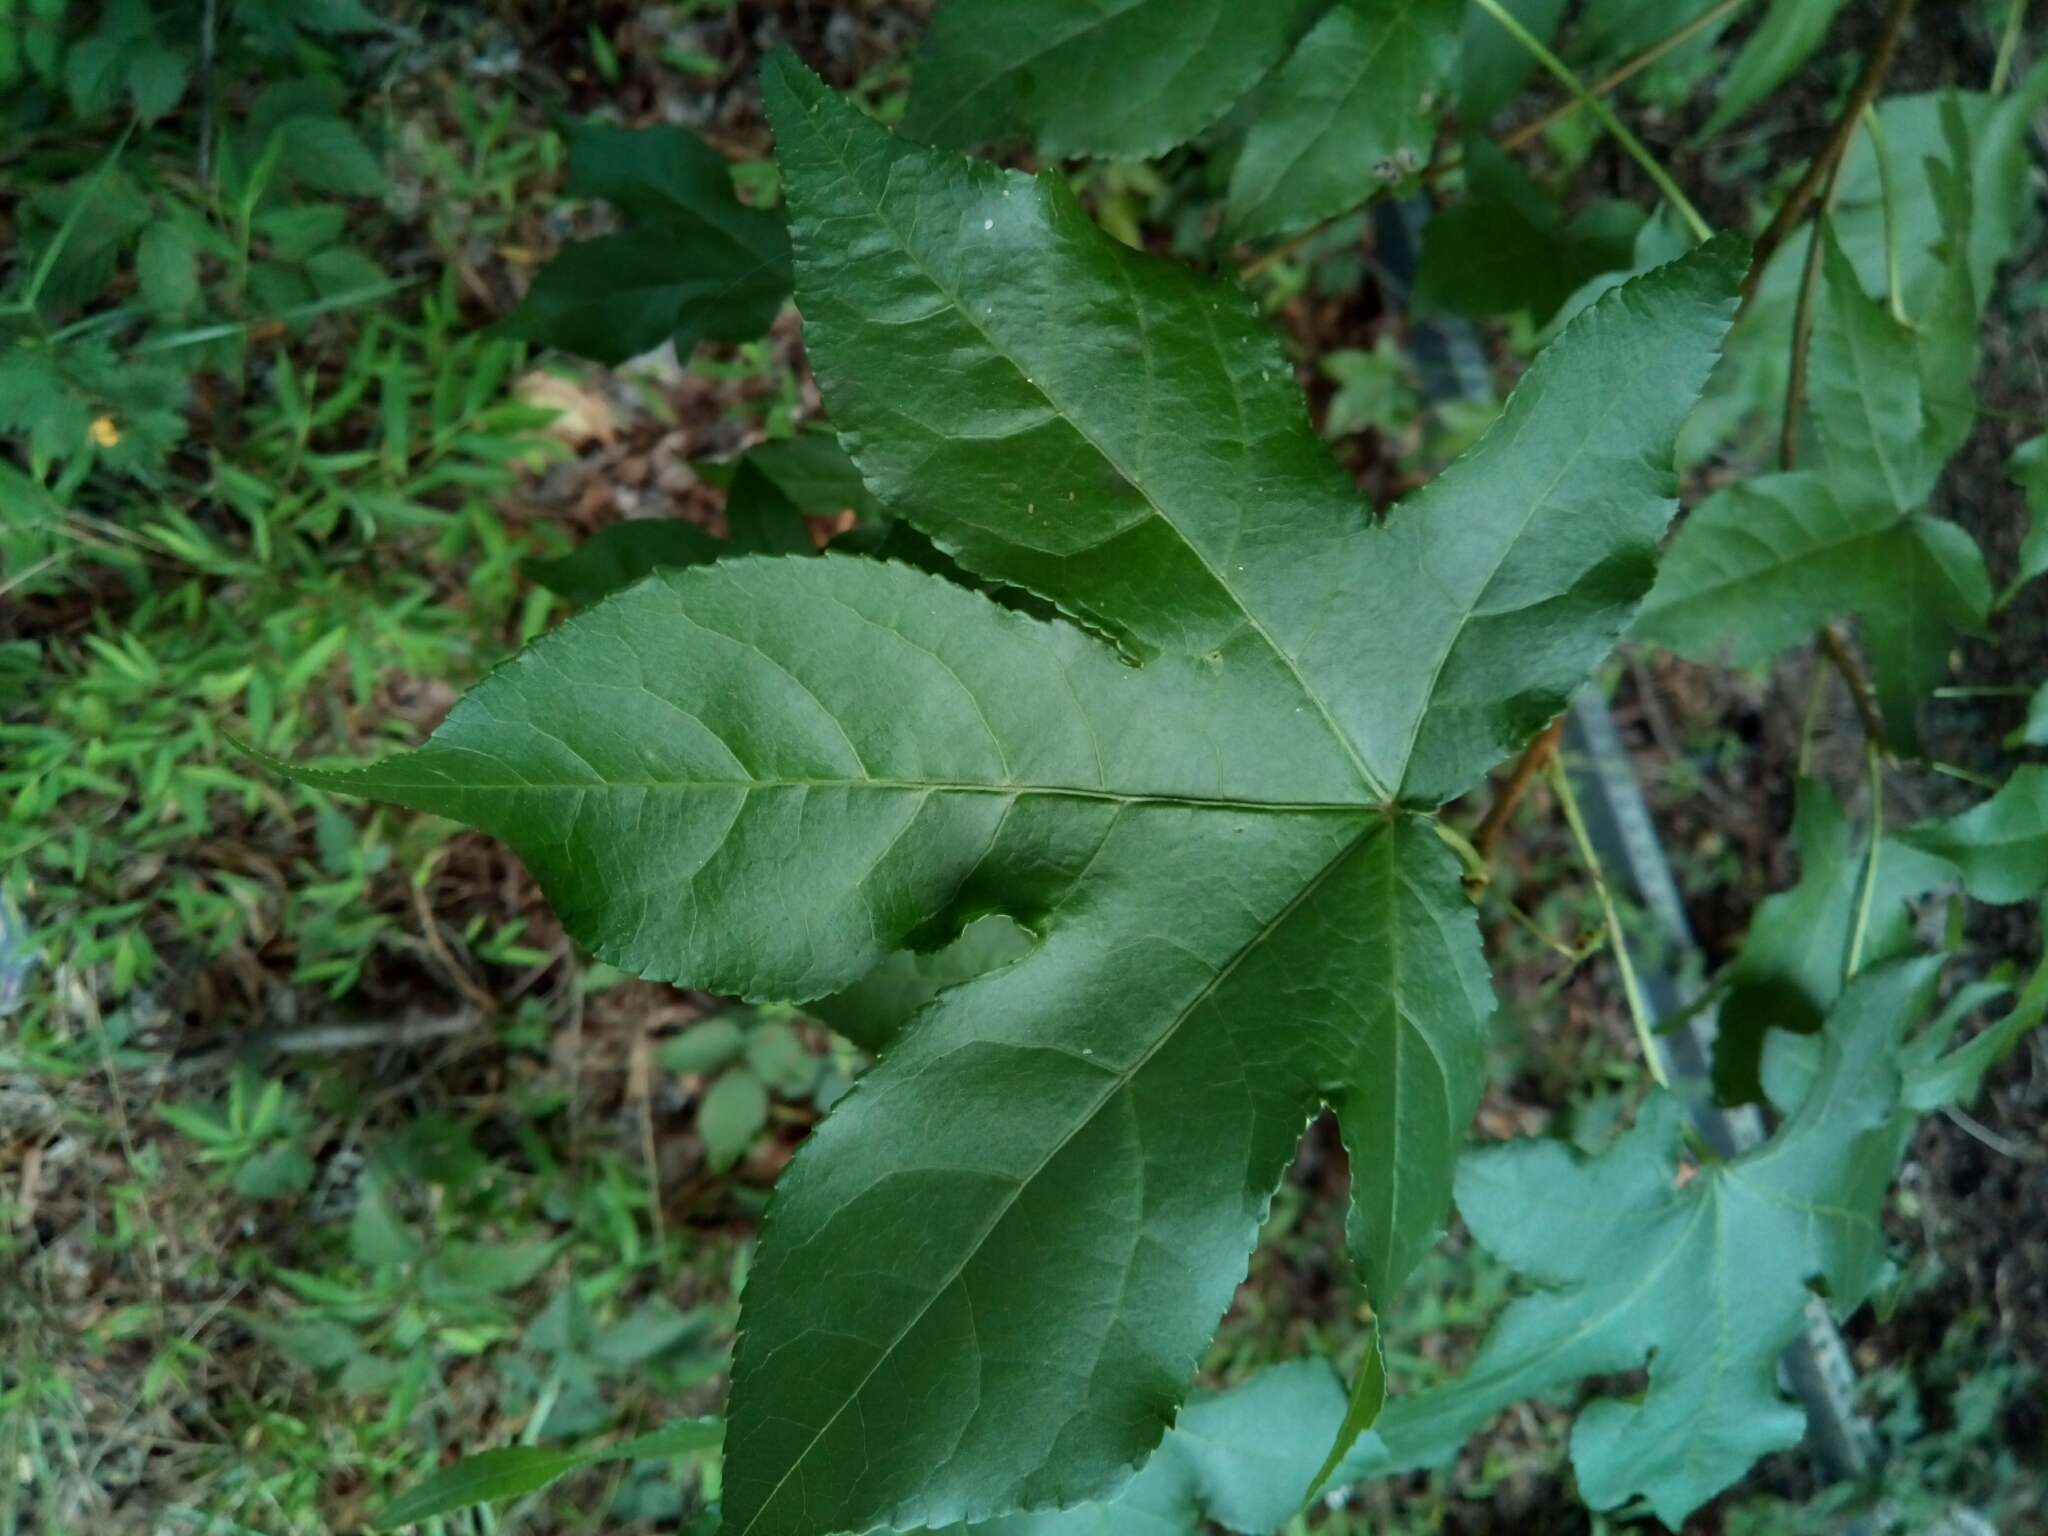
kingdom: Plantae
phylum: Tracheophyta
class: Magnoliopsida
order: Saxifragales
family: Altingiaceae
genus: Liquidambar
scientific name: Liquidambar styraciflua
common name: Sweet gum
